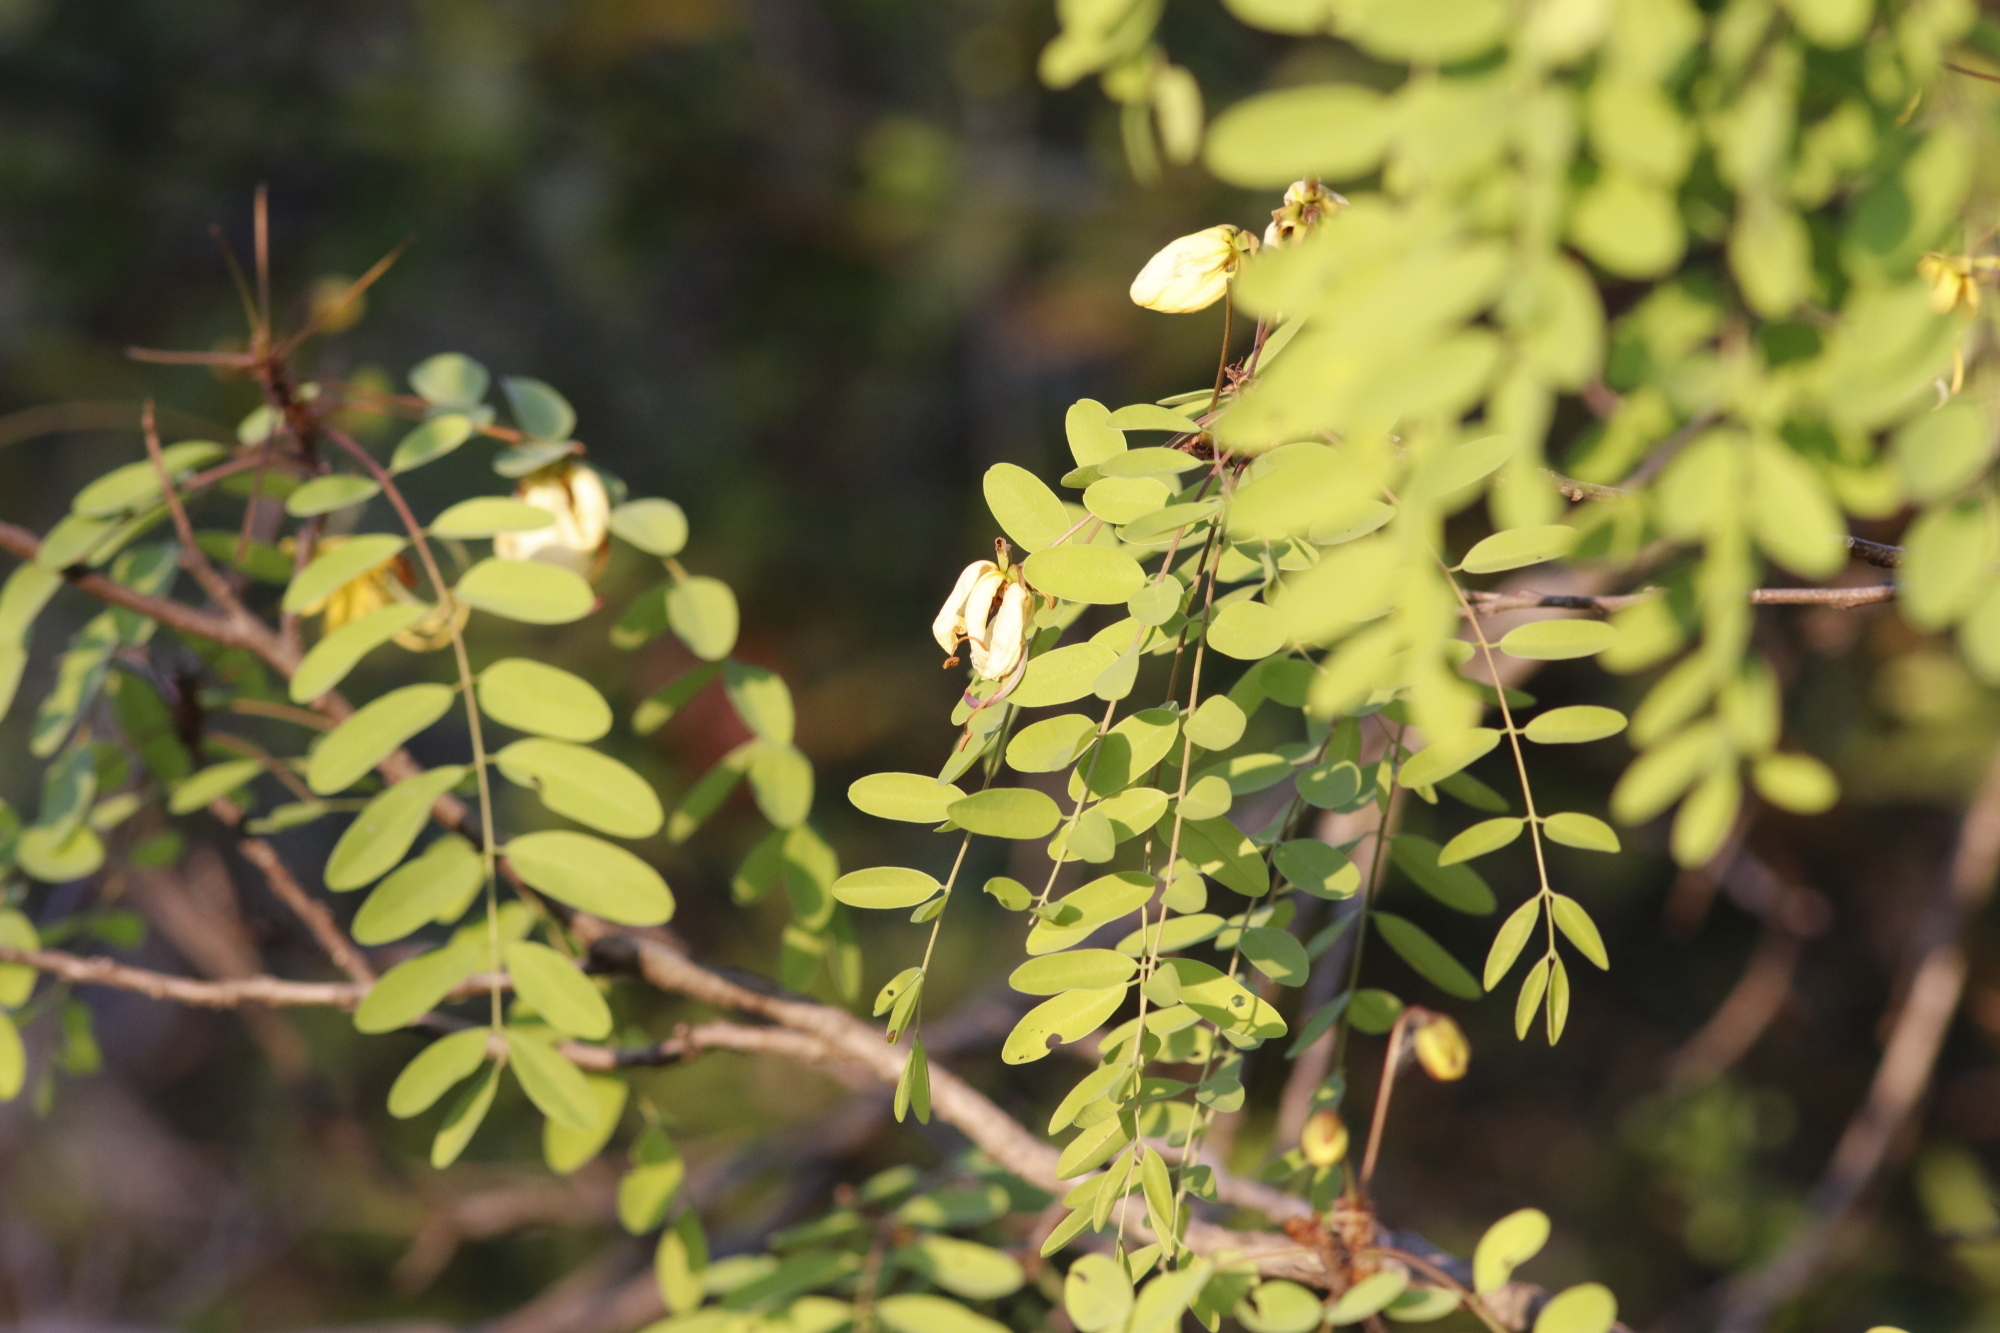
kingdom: Plantae
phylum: Tracheophyta
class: Magnoliopsida
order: Fabales
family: Fabaceae
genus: Cassia
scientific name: Cassia abbreviata
